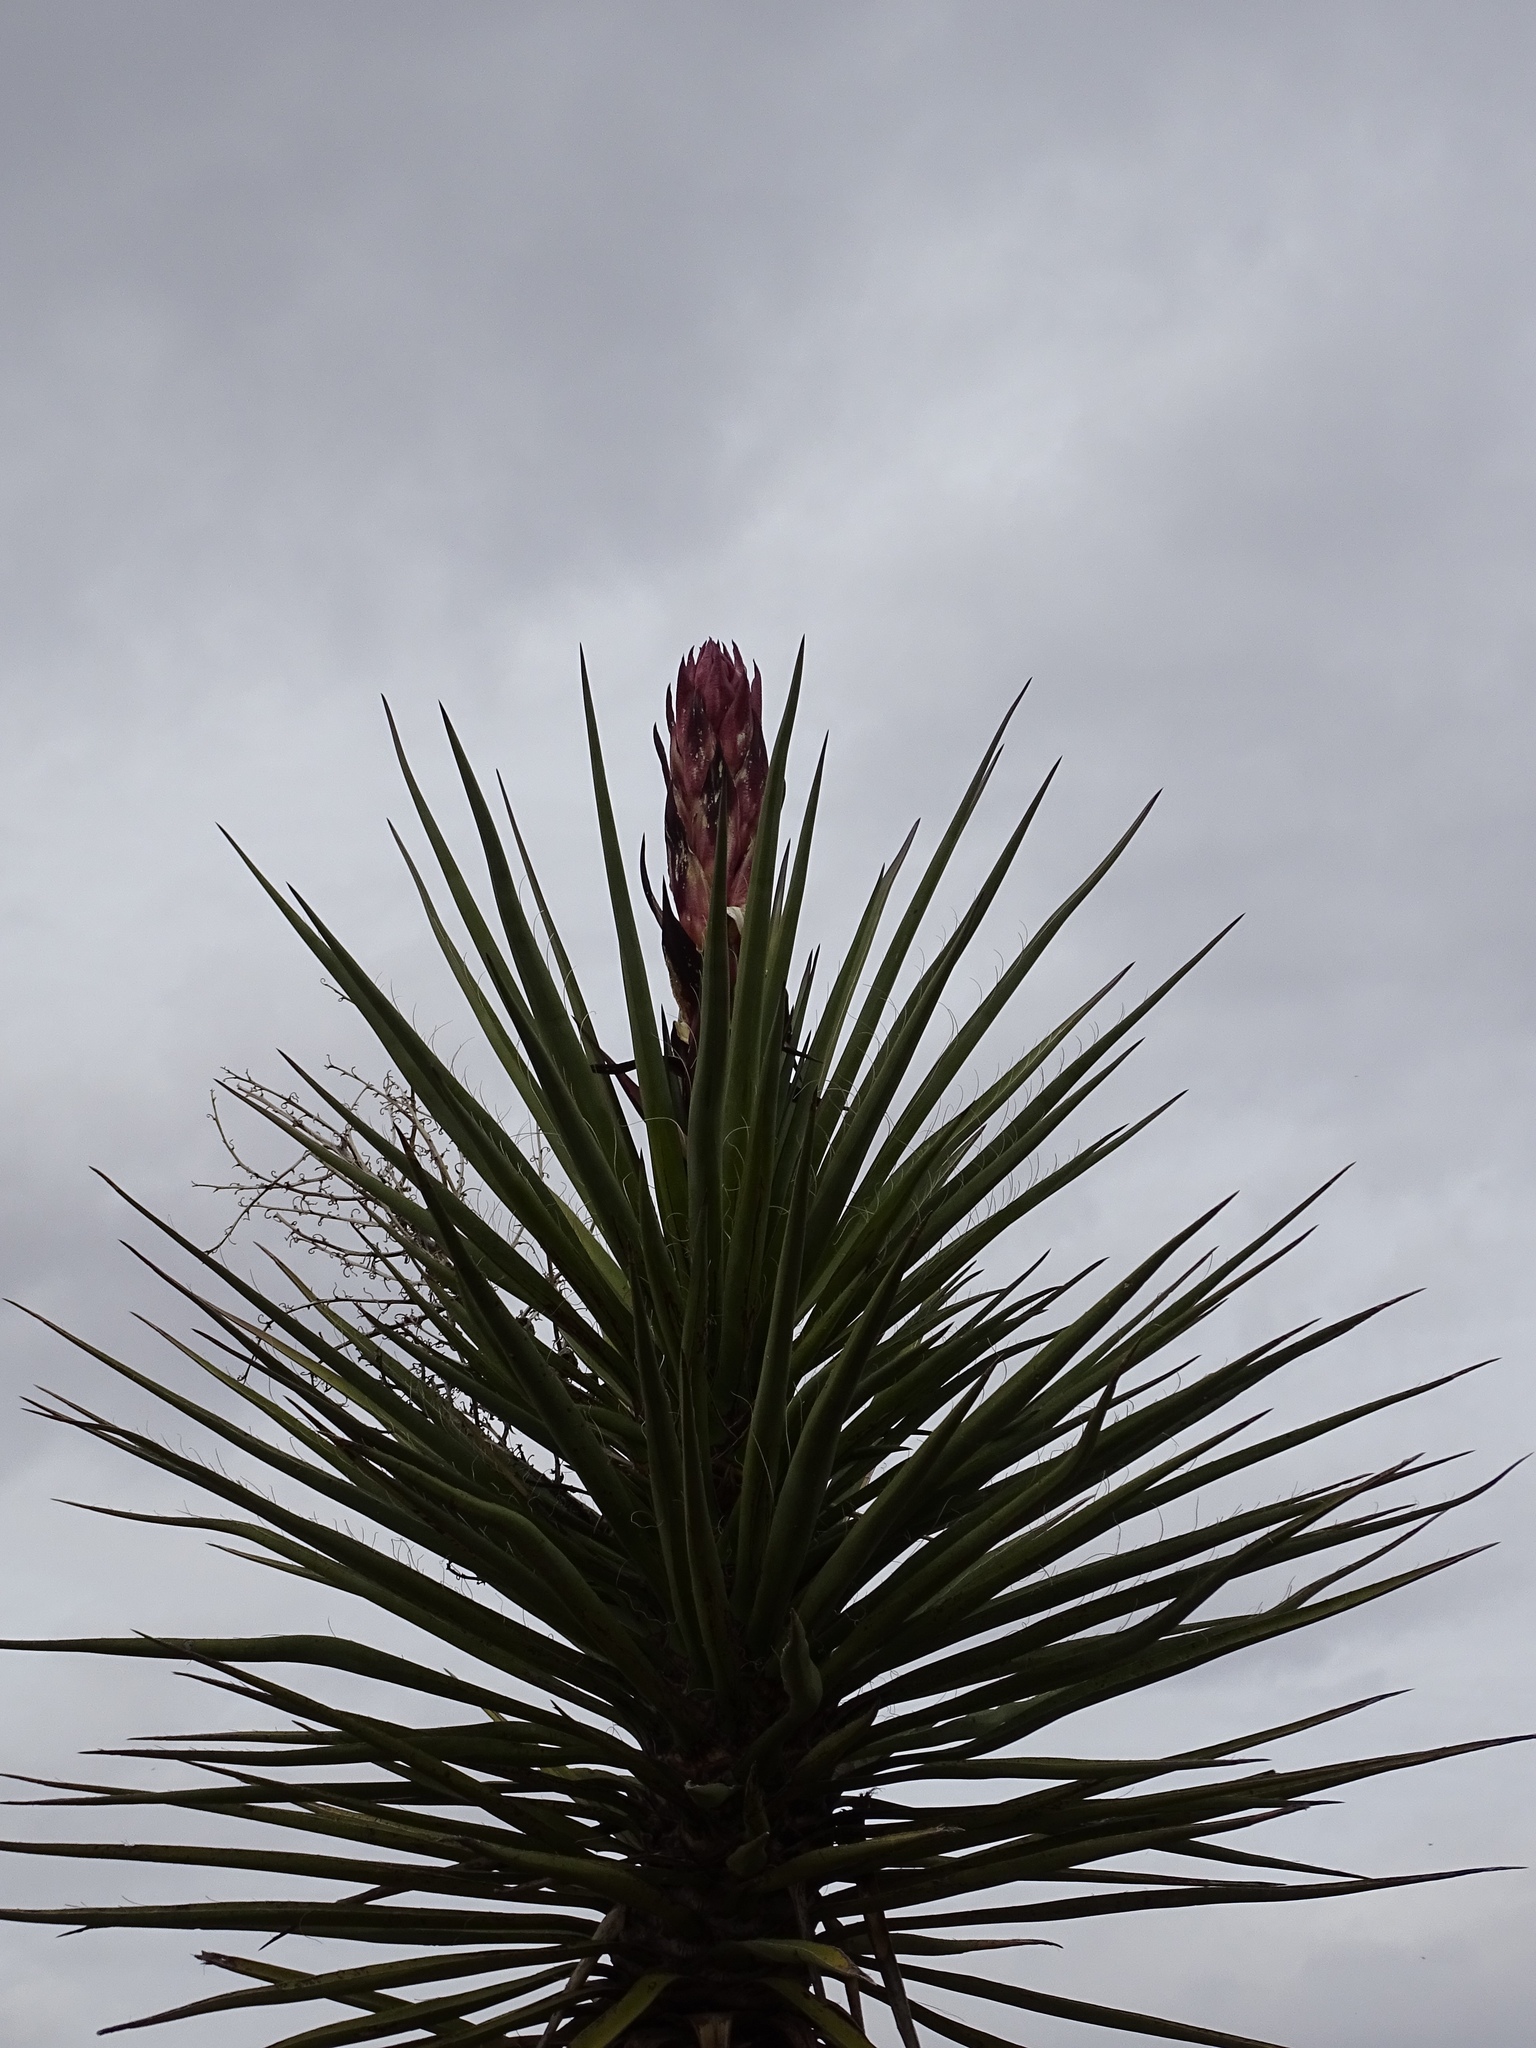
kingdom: Plantae
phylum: Tracheophyta
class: Liliopsida
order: Asparagales
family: Asparagaceae
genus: Yucca
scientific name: Yucca treculiana
